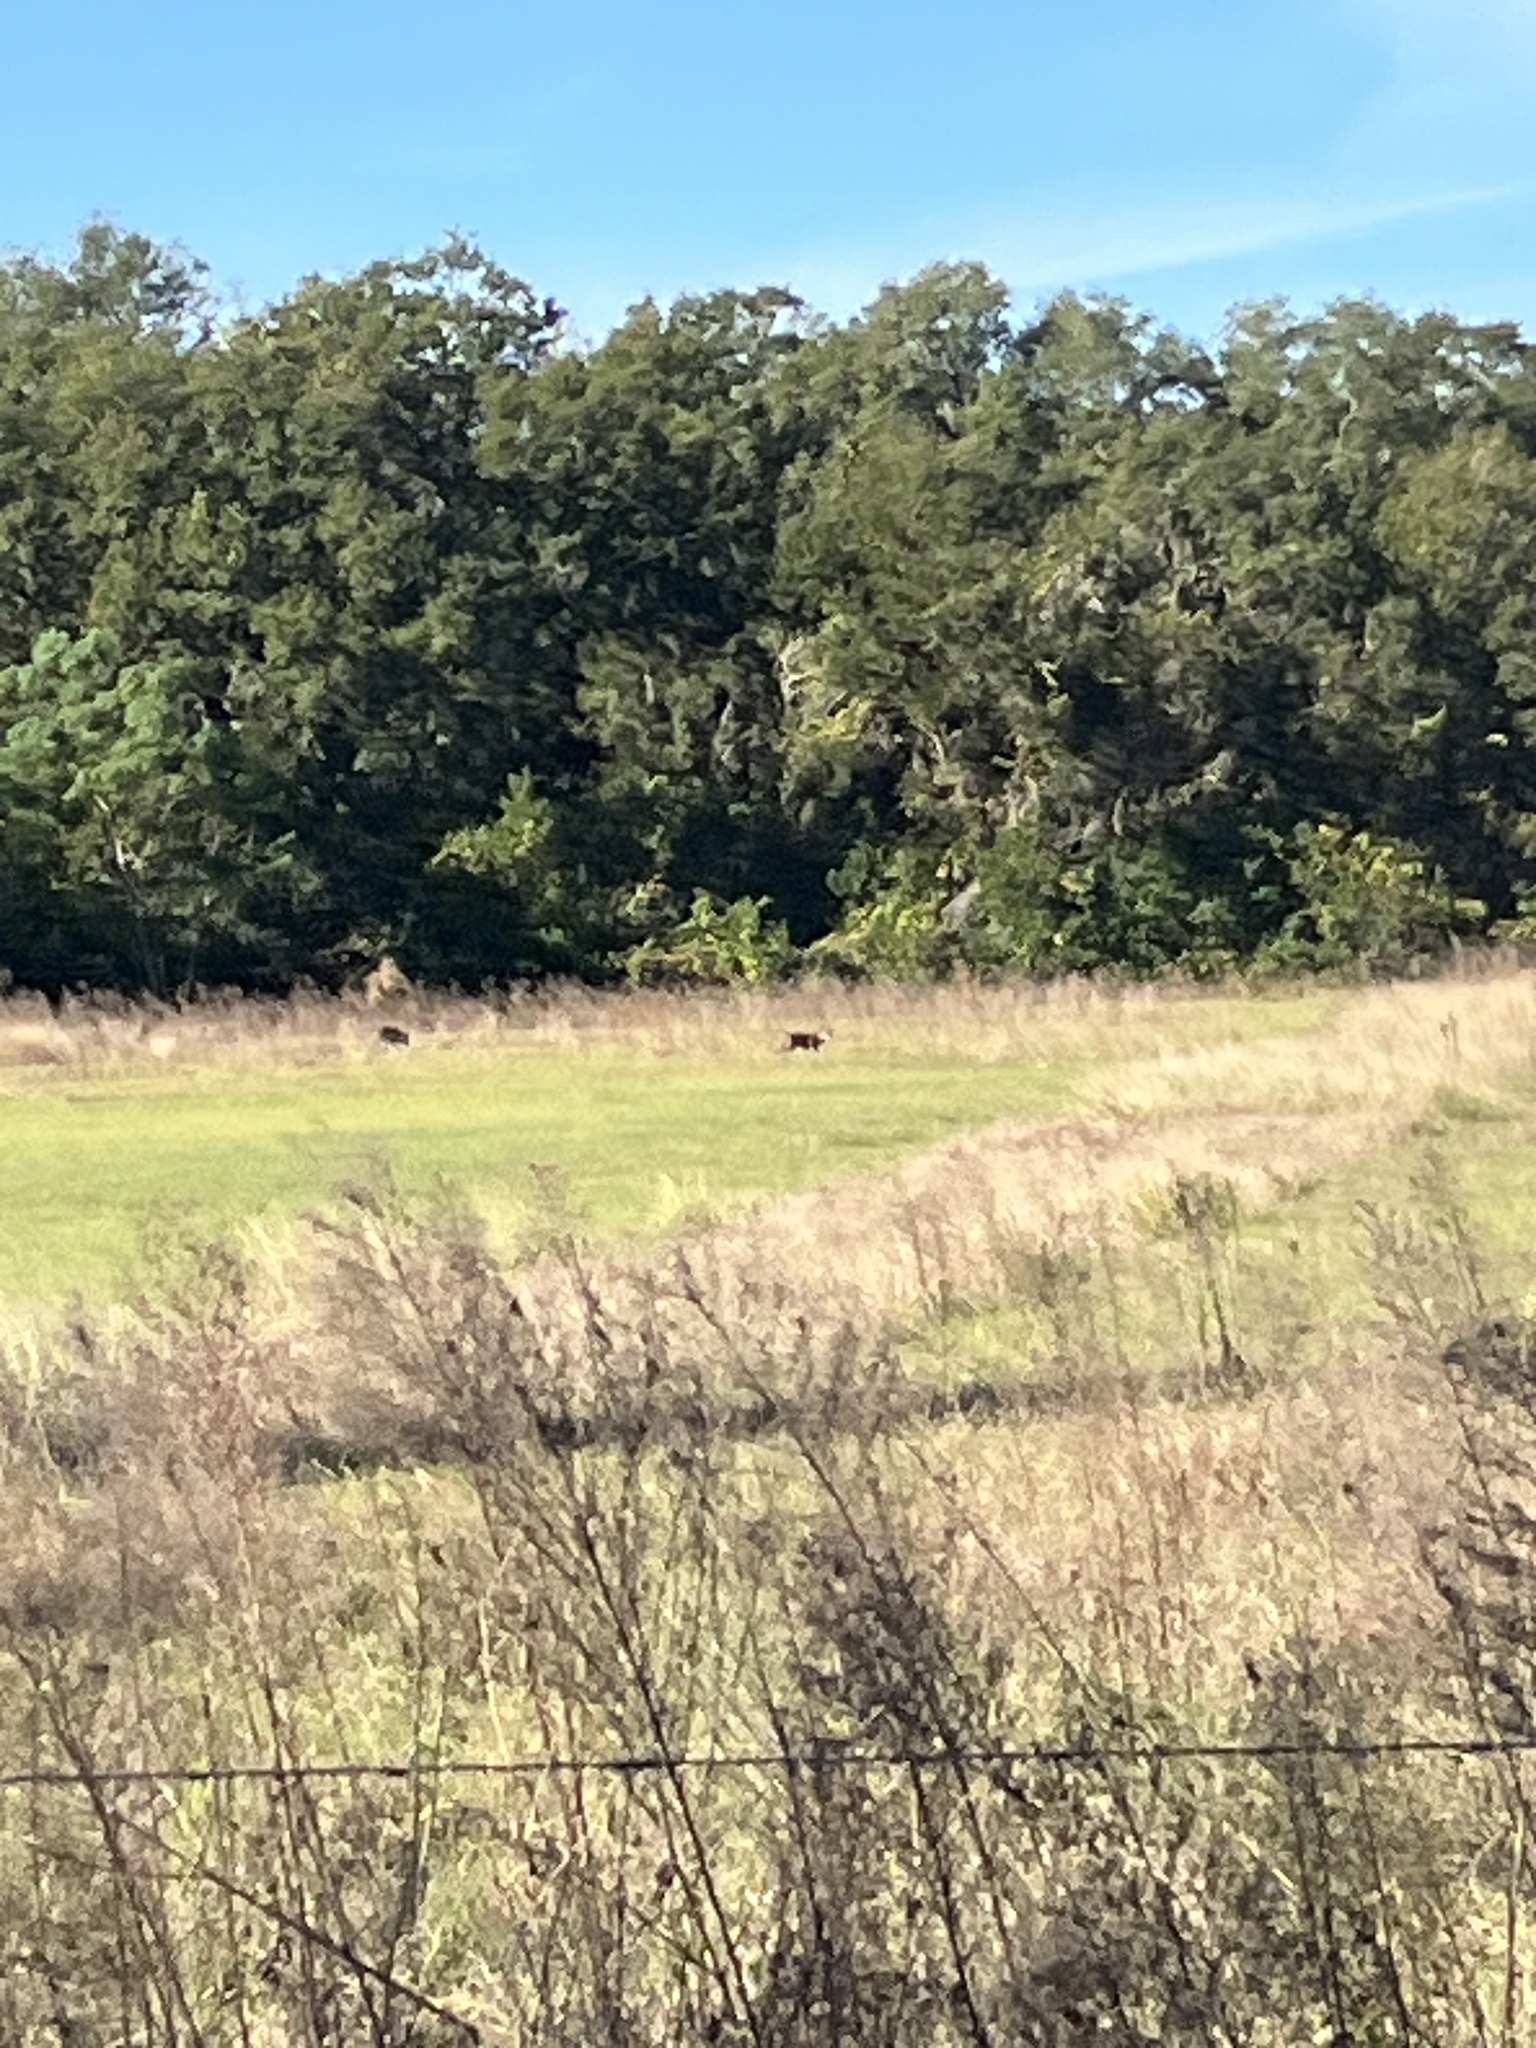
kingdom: Animalia
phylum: Chordata
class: Mammalia
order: Carnivora
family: Canidae
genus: Canis
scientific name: Canis latrans
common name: Coyote
